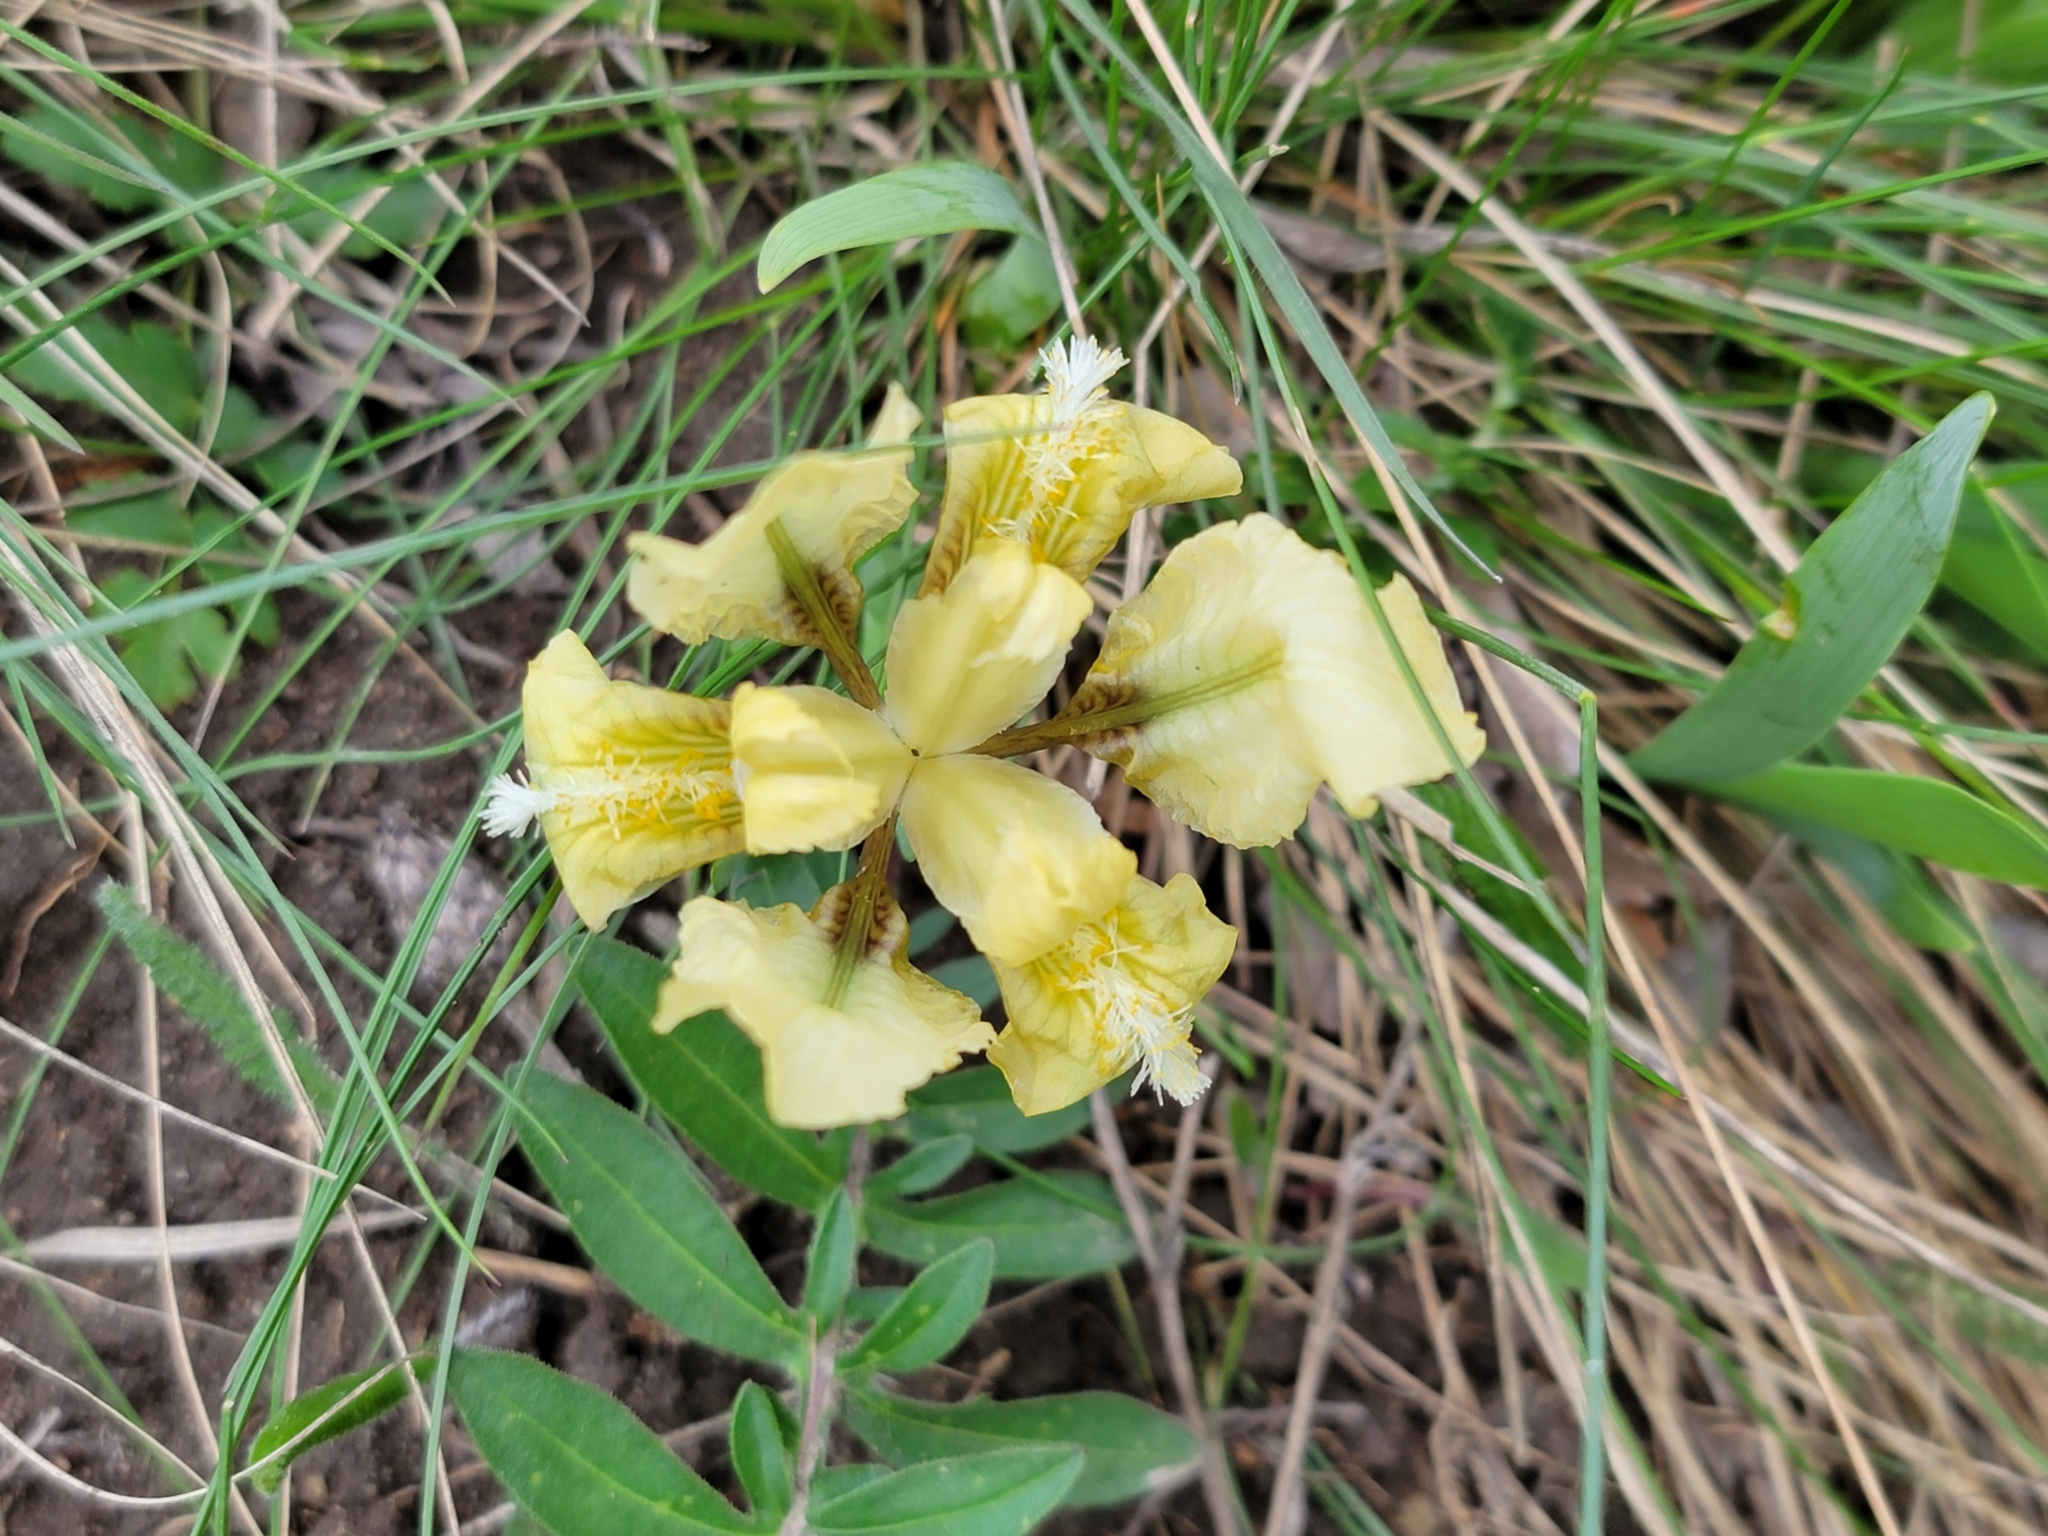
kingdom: Plantae
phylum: Tracheophyta
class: Liliopsida
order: Asparagales
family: Iridaceae
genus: Iris
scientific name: Iris pumila
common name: Dwarf iris
